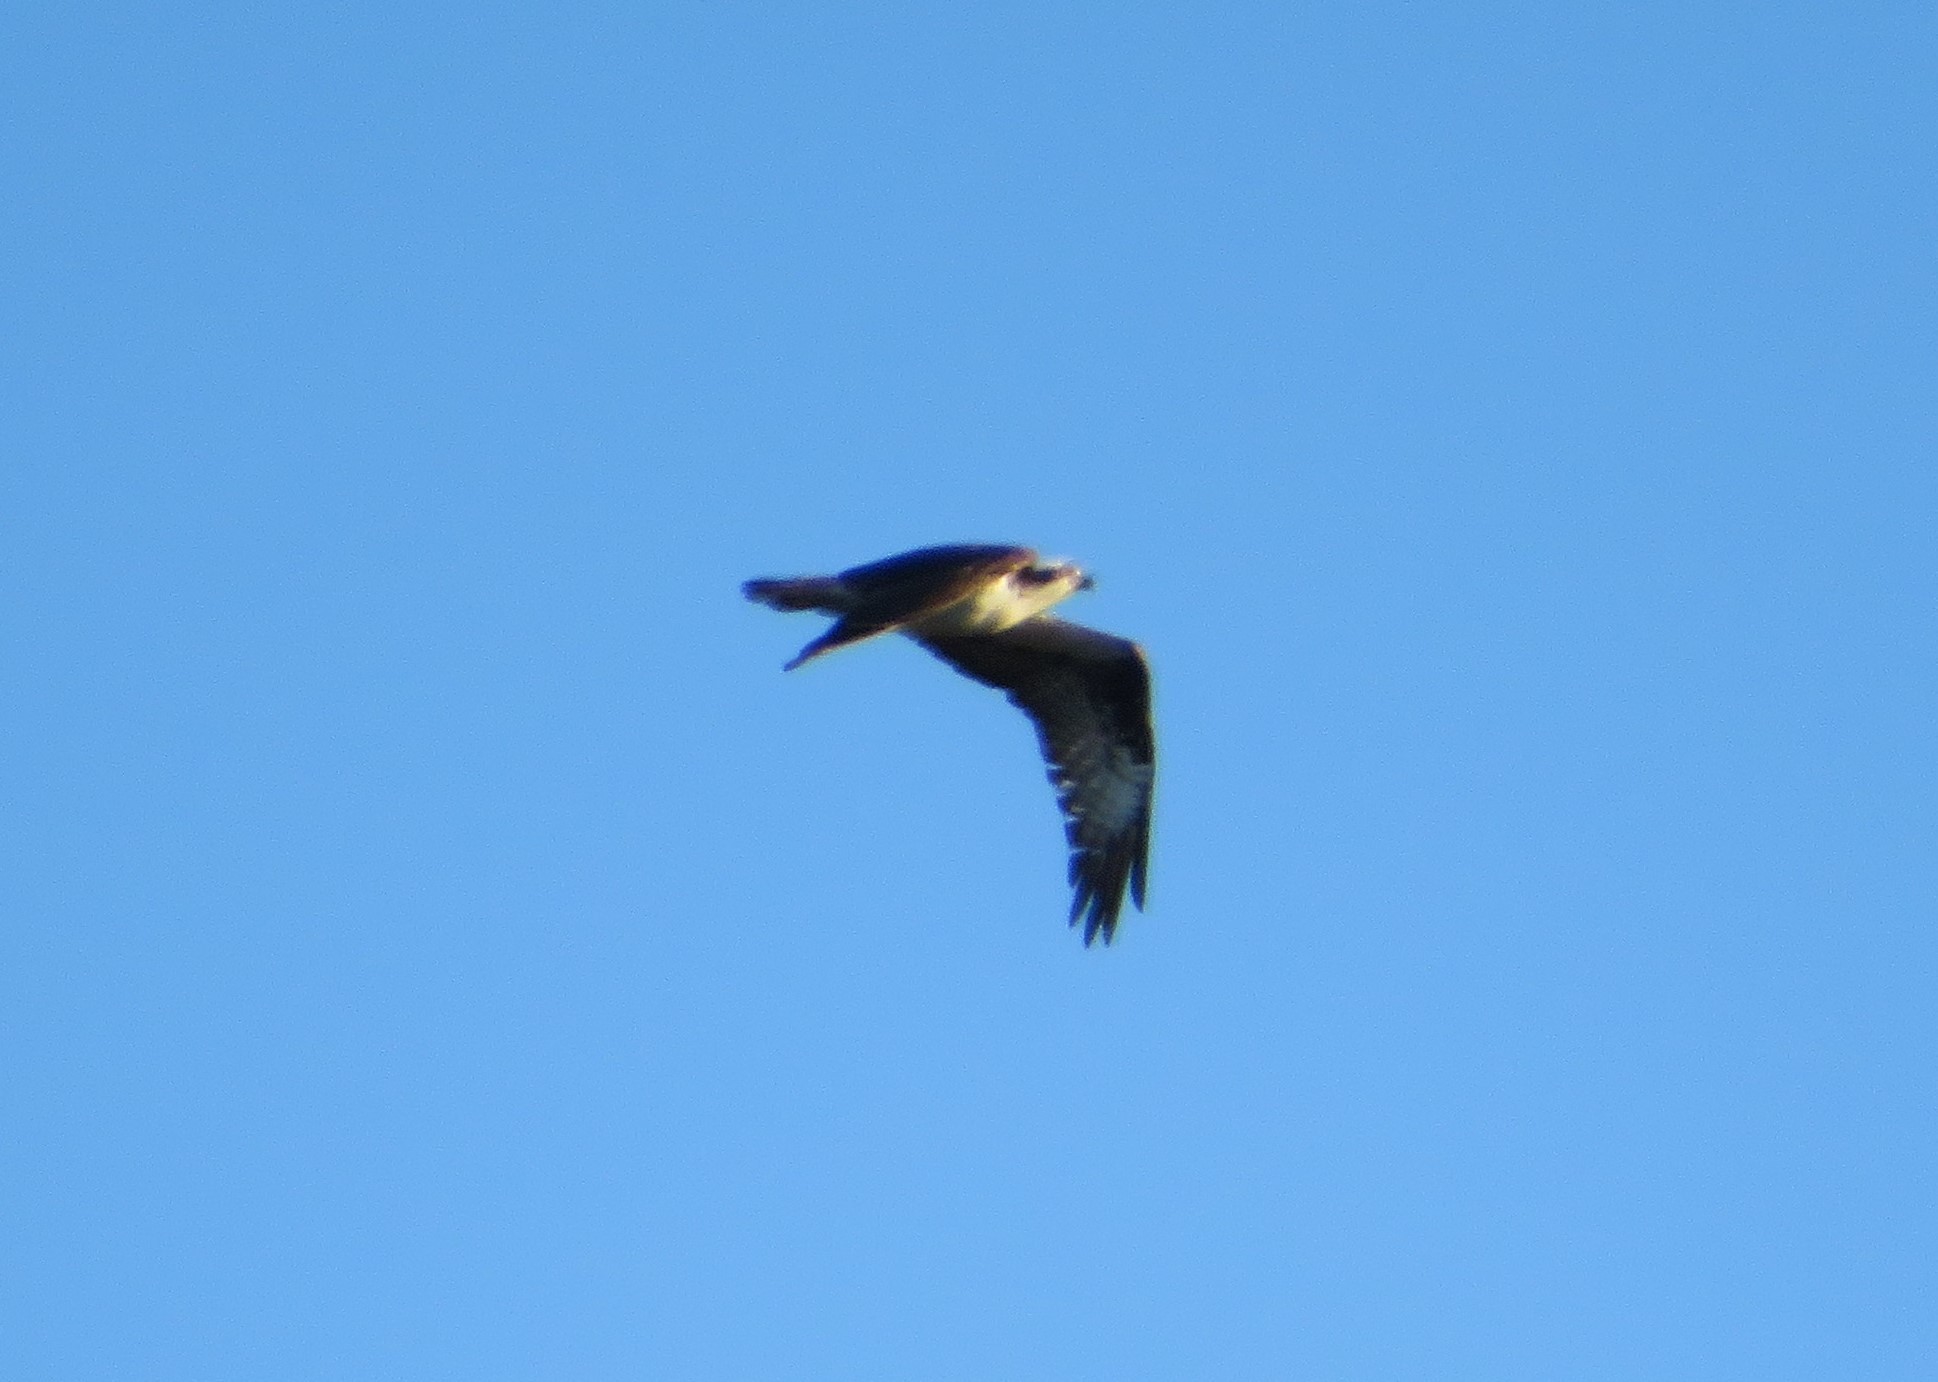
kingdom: Animalia
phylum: Chordata
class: Aves
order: Accipitriformes
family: Pandionidae
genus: Pandion
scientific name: Pandion haliaetus
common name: Osprey
